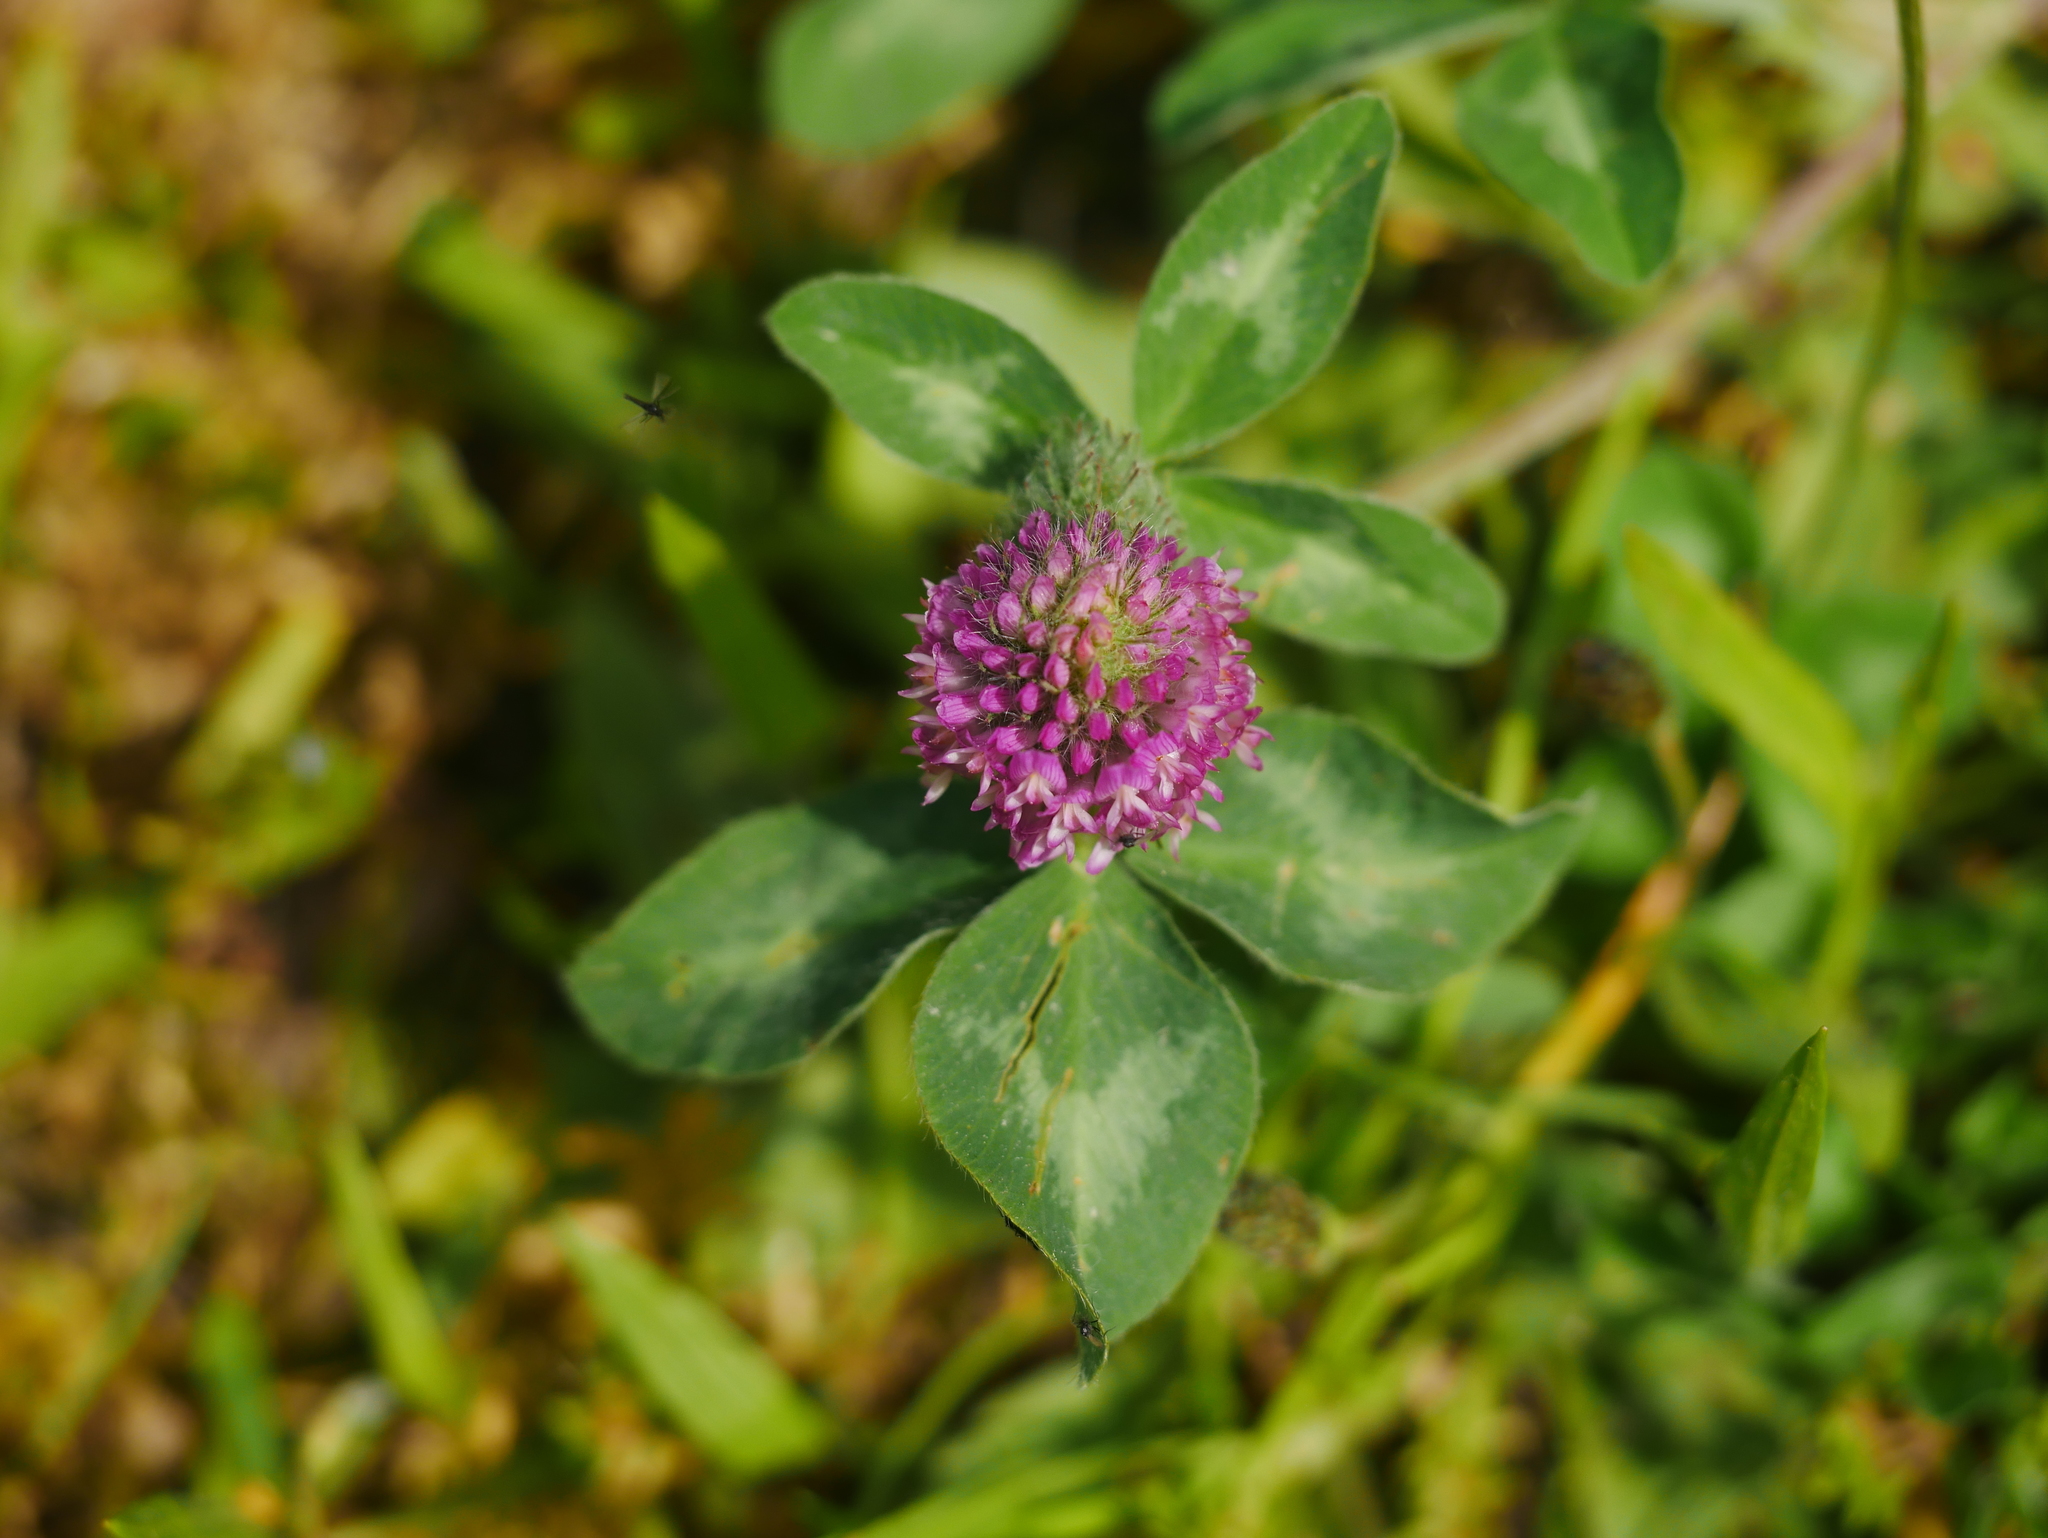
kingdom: Plantae
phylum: Tracheophyta
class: Magnoliopsida
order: Fabales
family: Fabaceae
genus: Trifolium
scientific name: Trifolium pratense
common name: Red clover
